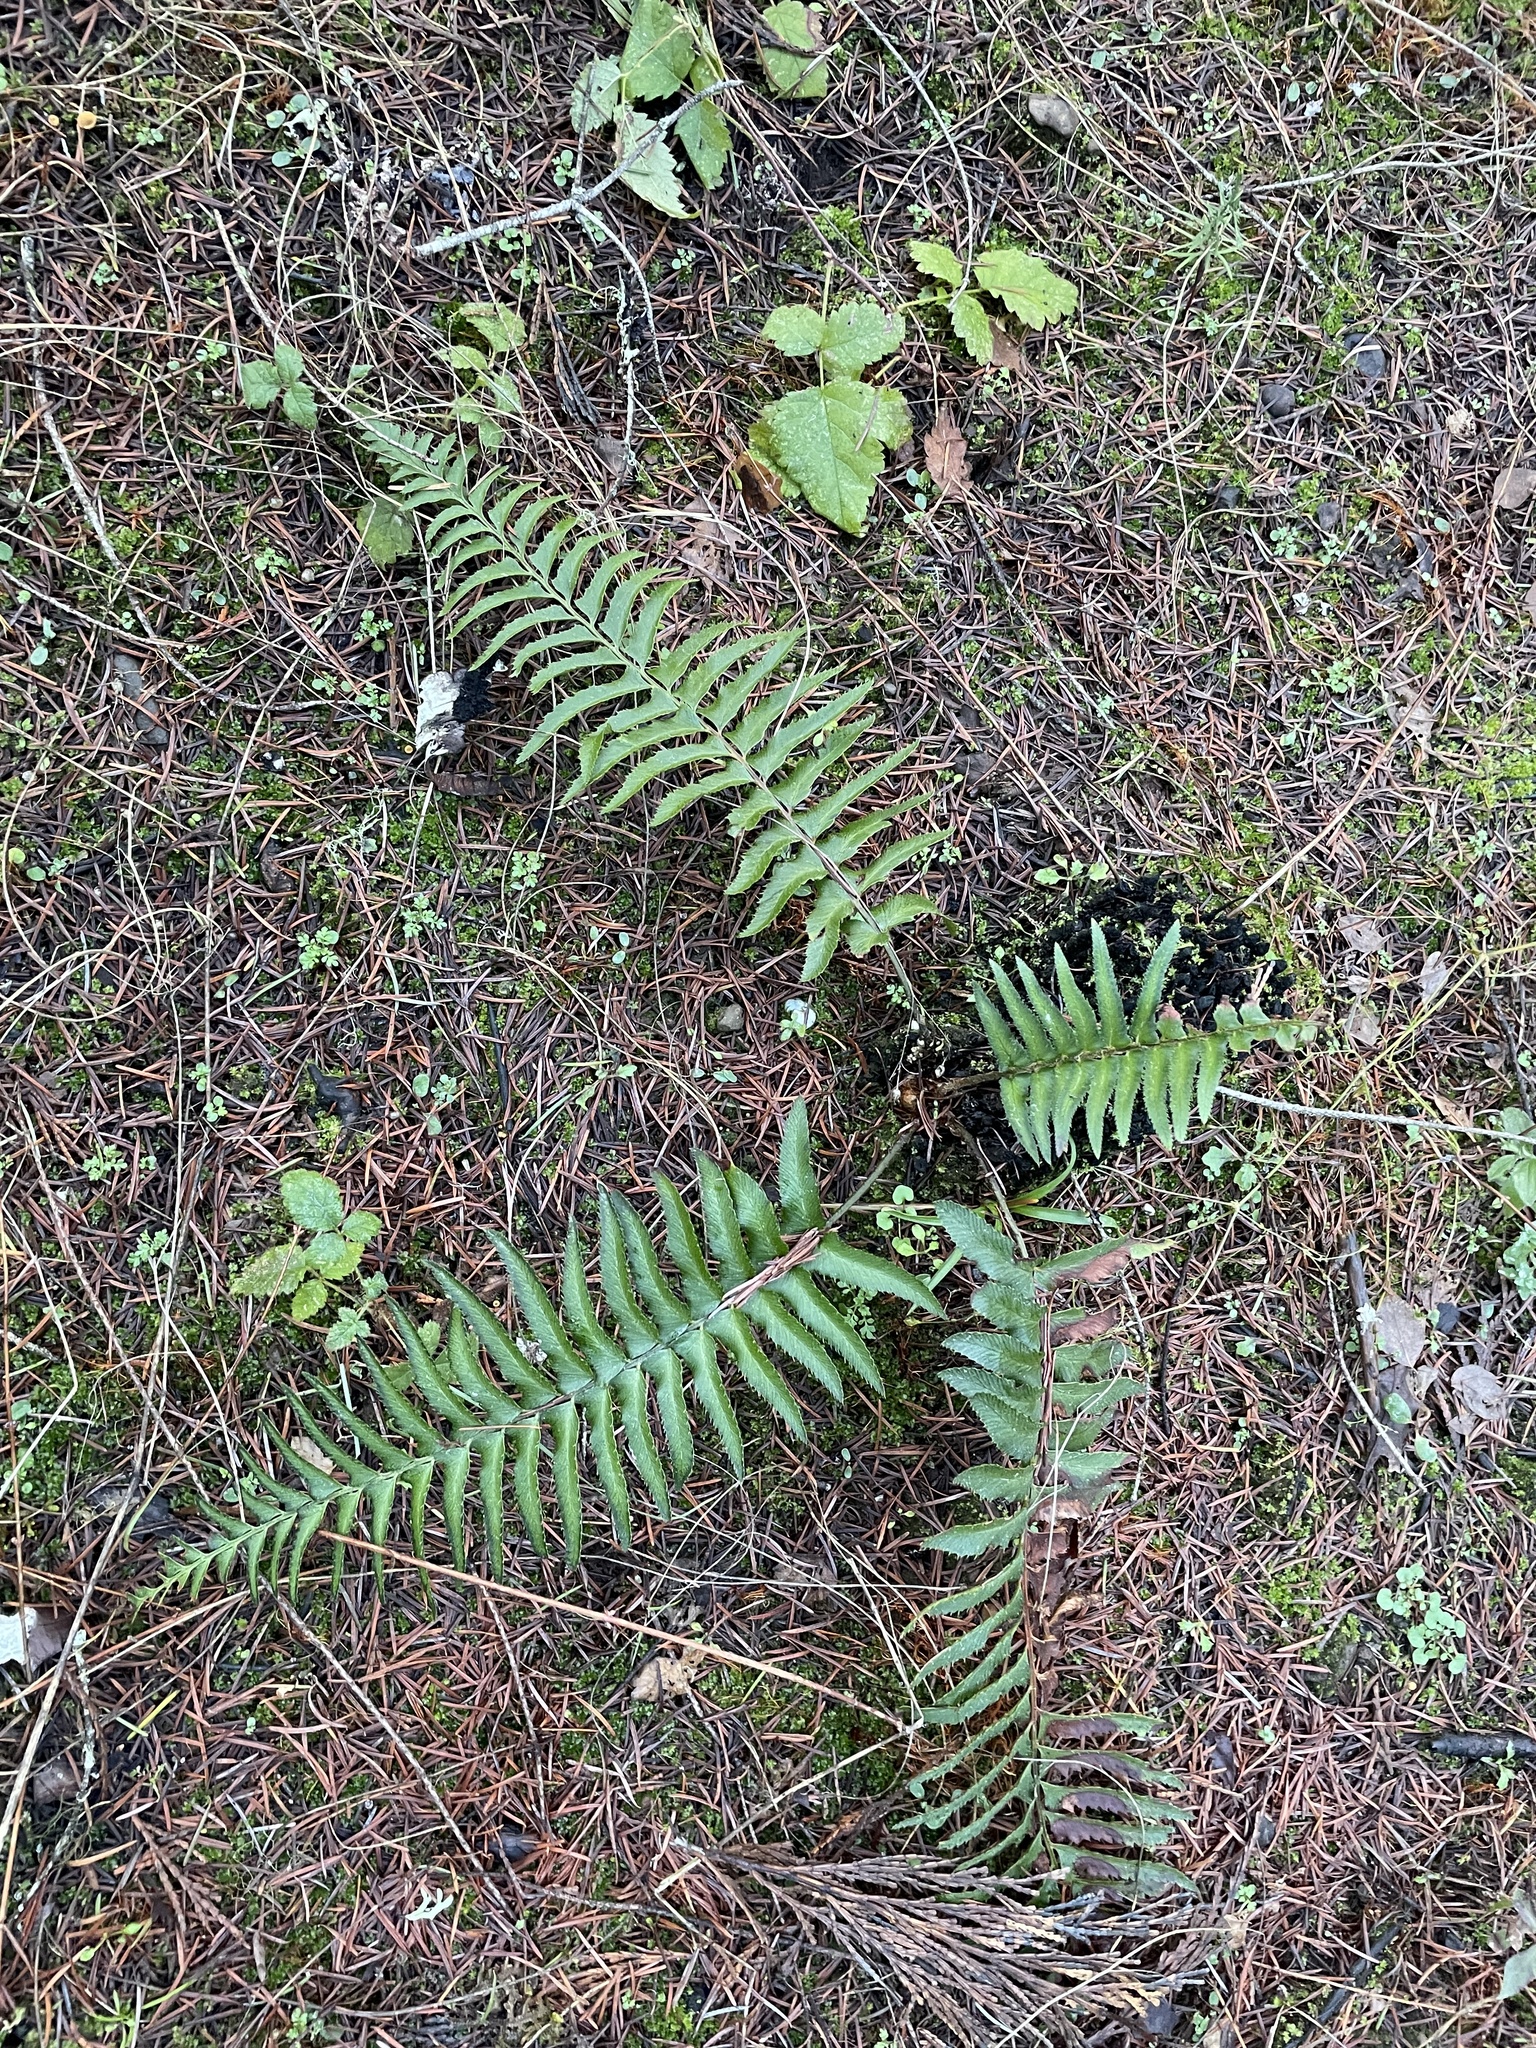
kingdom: Plantae
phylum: Tracheophyta
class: Polypodiopsida
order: Polypodiales
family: Dryopteridaceae
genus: Polystichum
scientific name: Polystichum munitum
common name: Western sword-fern
